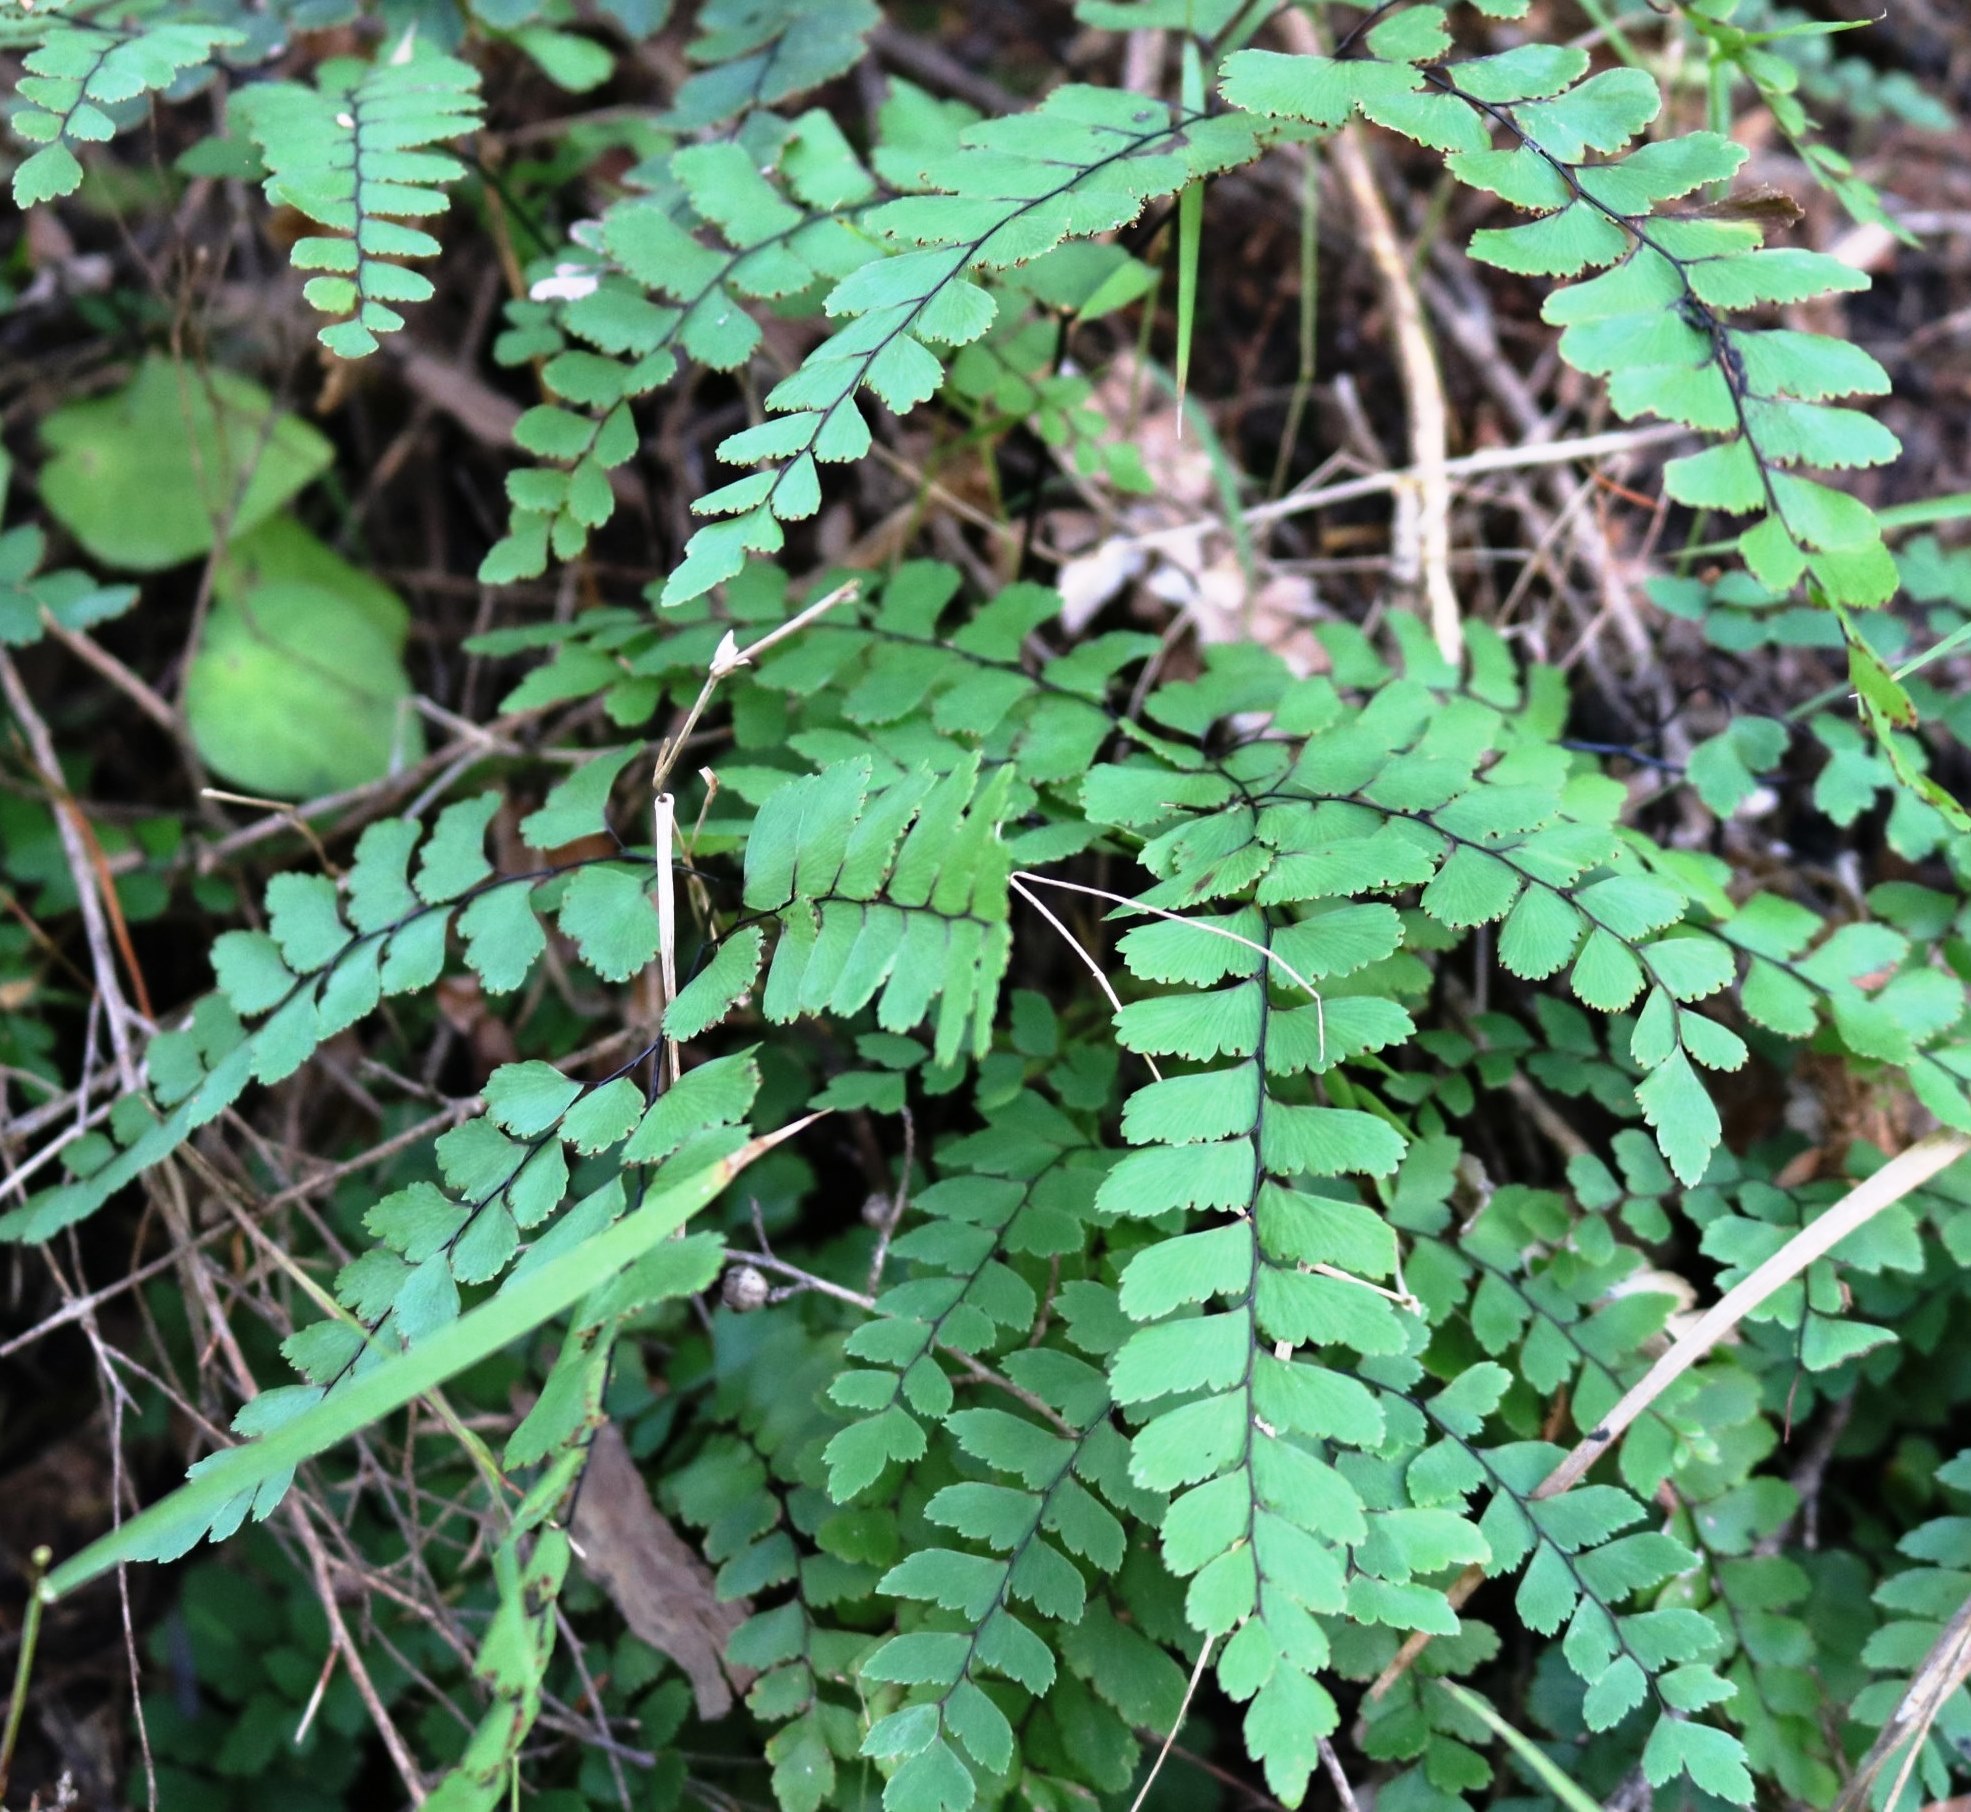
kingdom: Plantae
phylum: Tracheophyta
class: Polypodiopsida
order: Polypodiales
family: Pteridaceae
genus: Adiantum
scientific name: Adiantum cunninghamii
